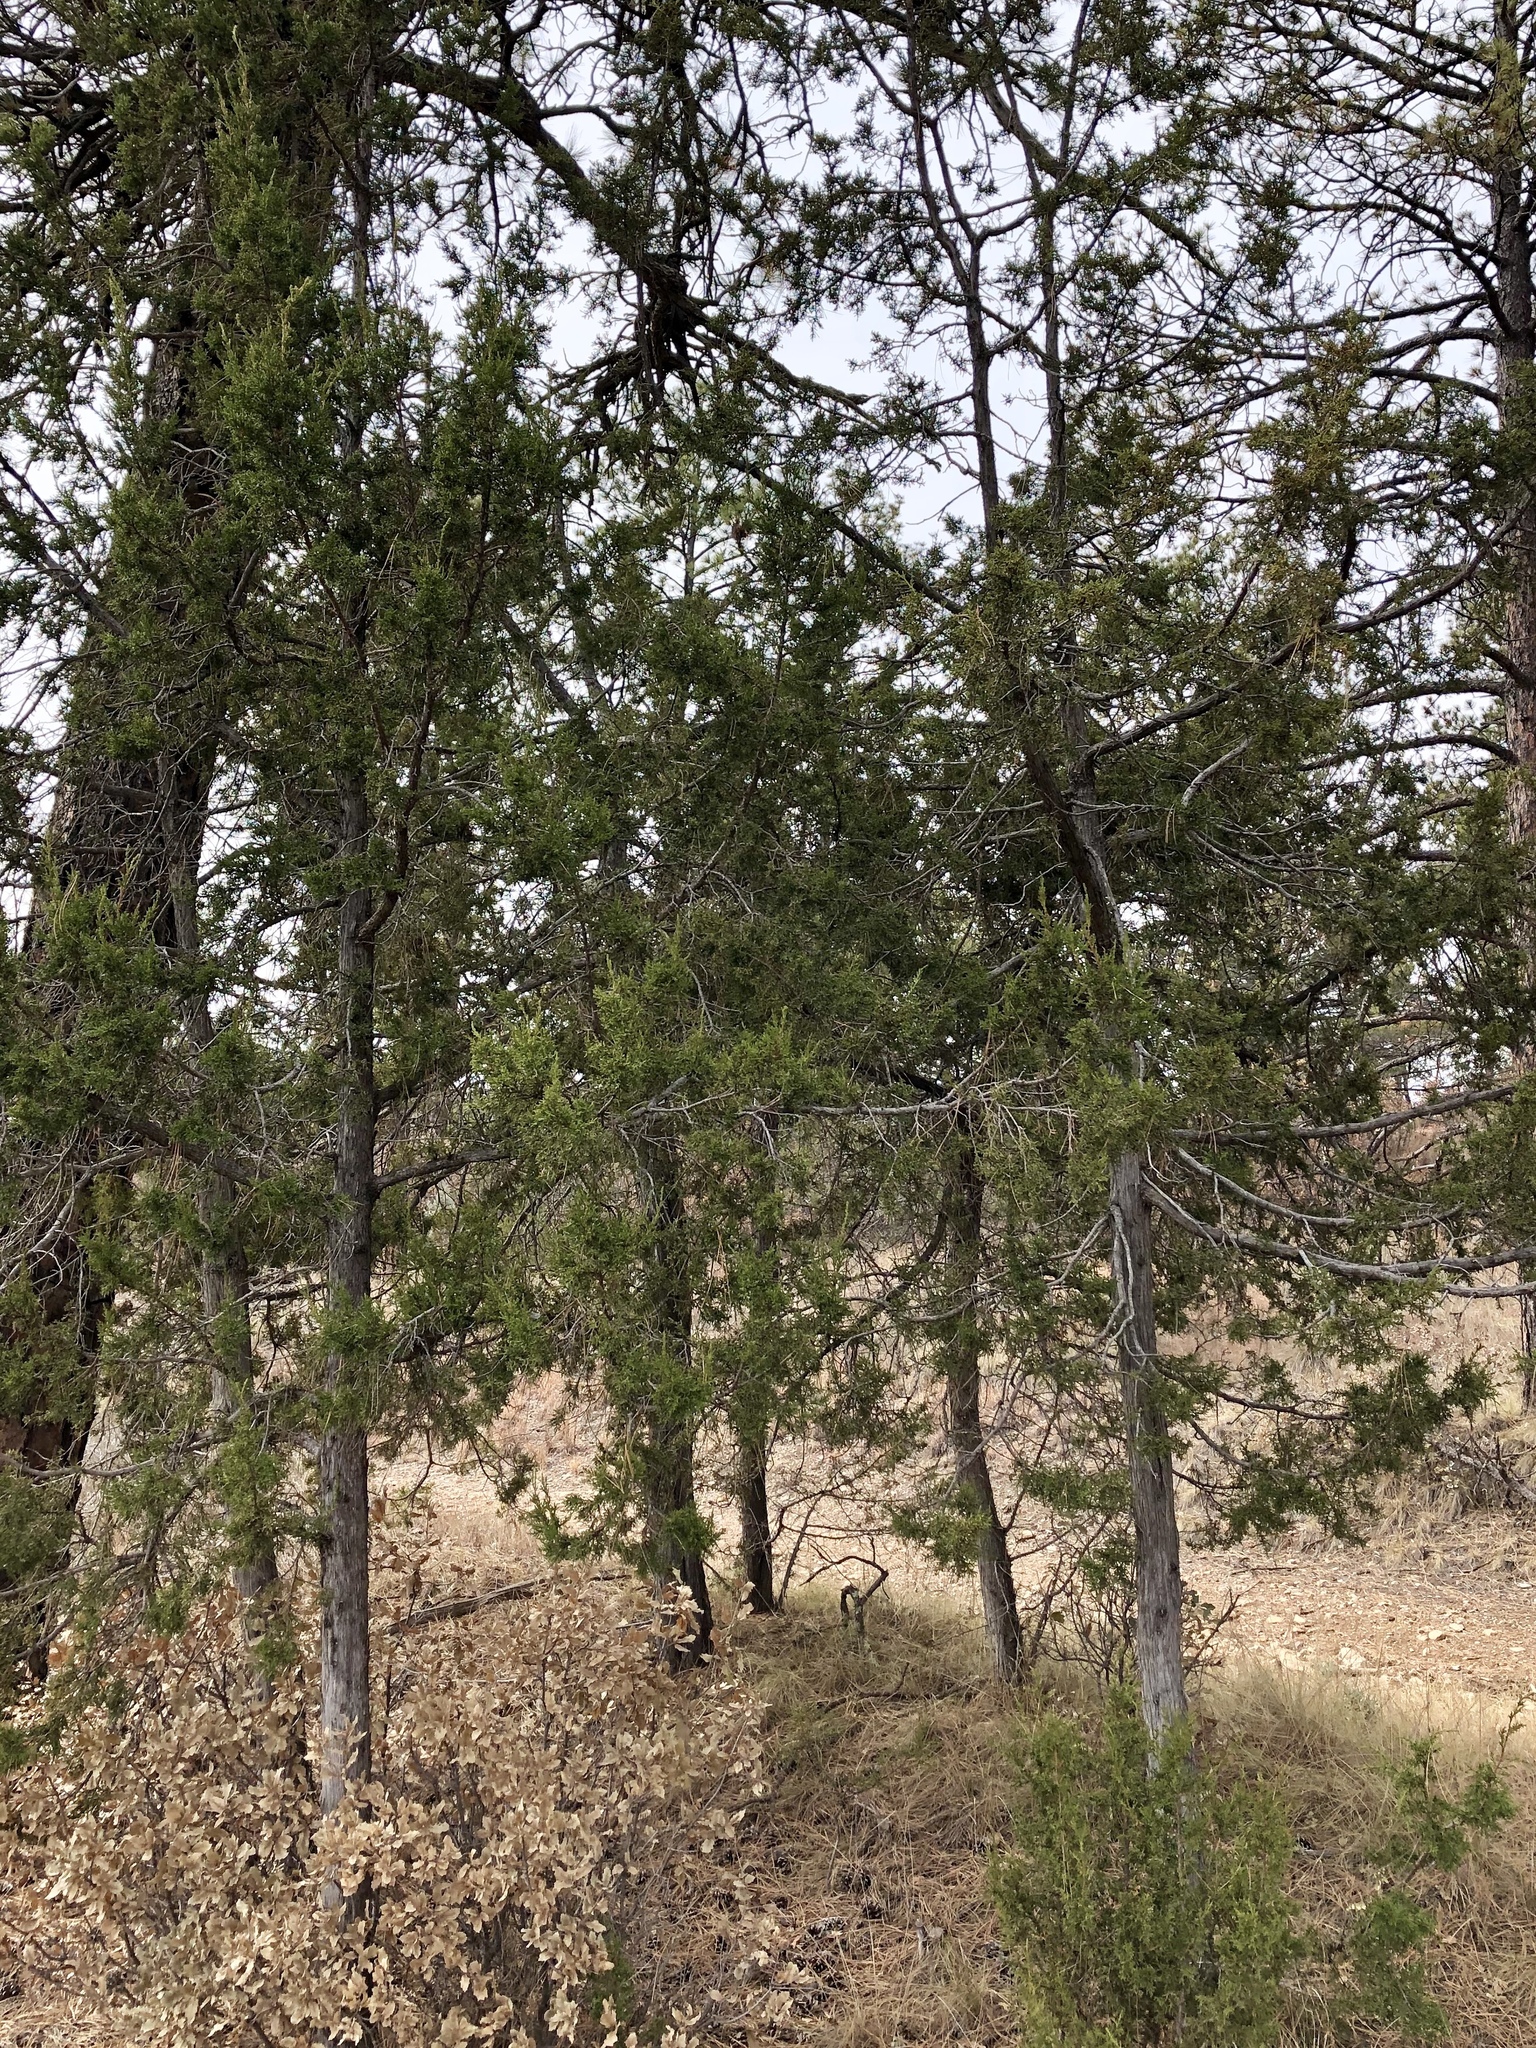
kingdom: Plantae
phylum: Tracheophyta
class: Pinopsida
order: Pinales
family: Cupressaceae
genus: Juniperus
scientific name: Juniperus monosperma
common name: One-seed juniper
